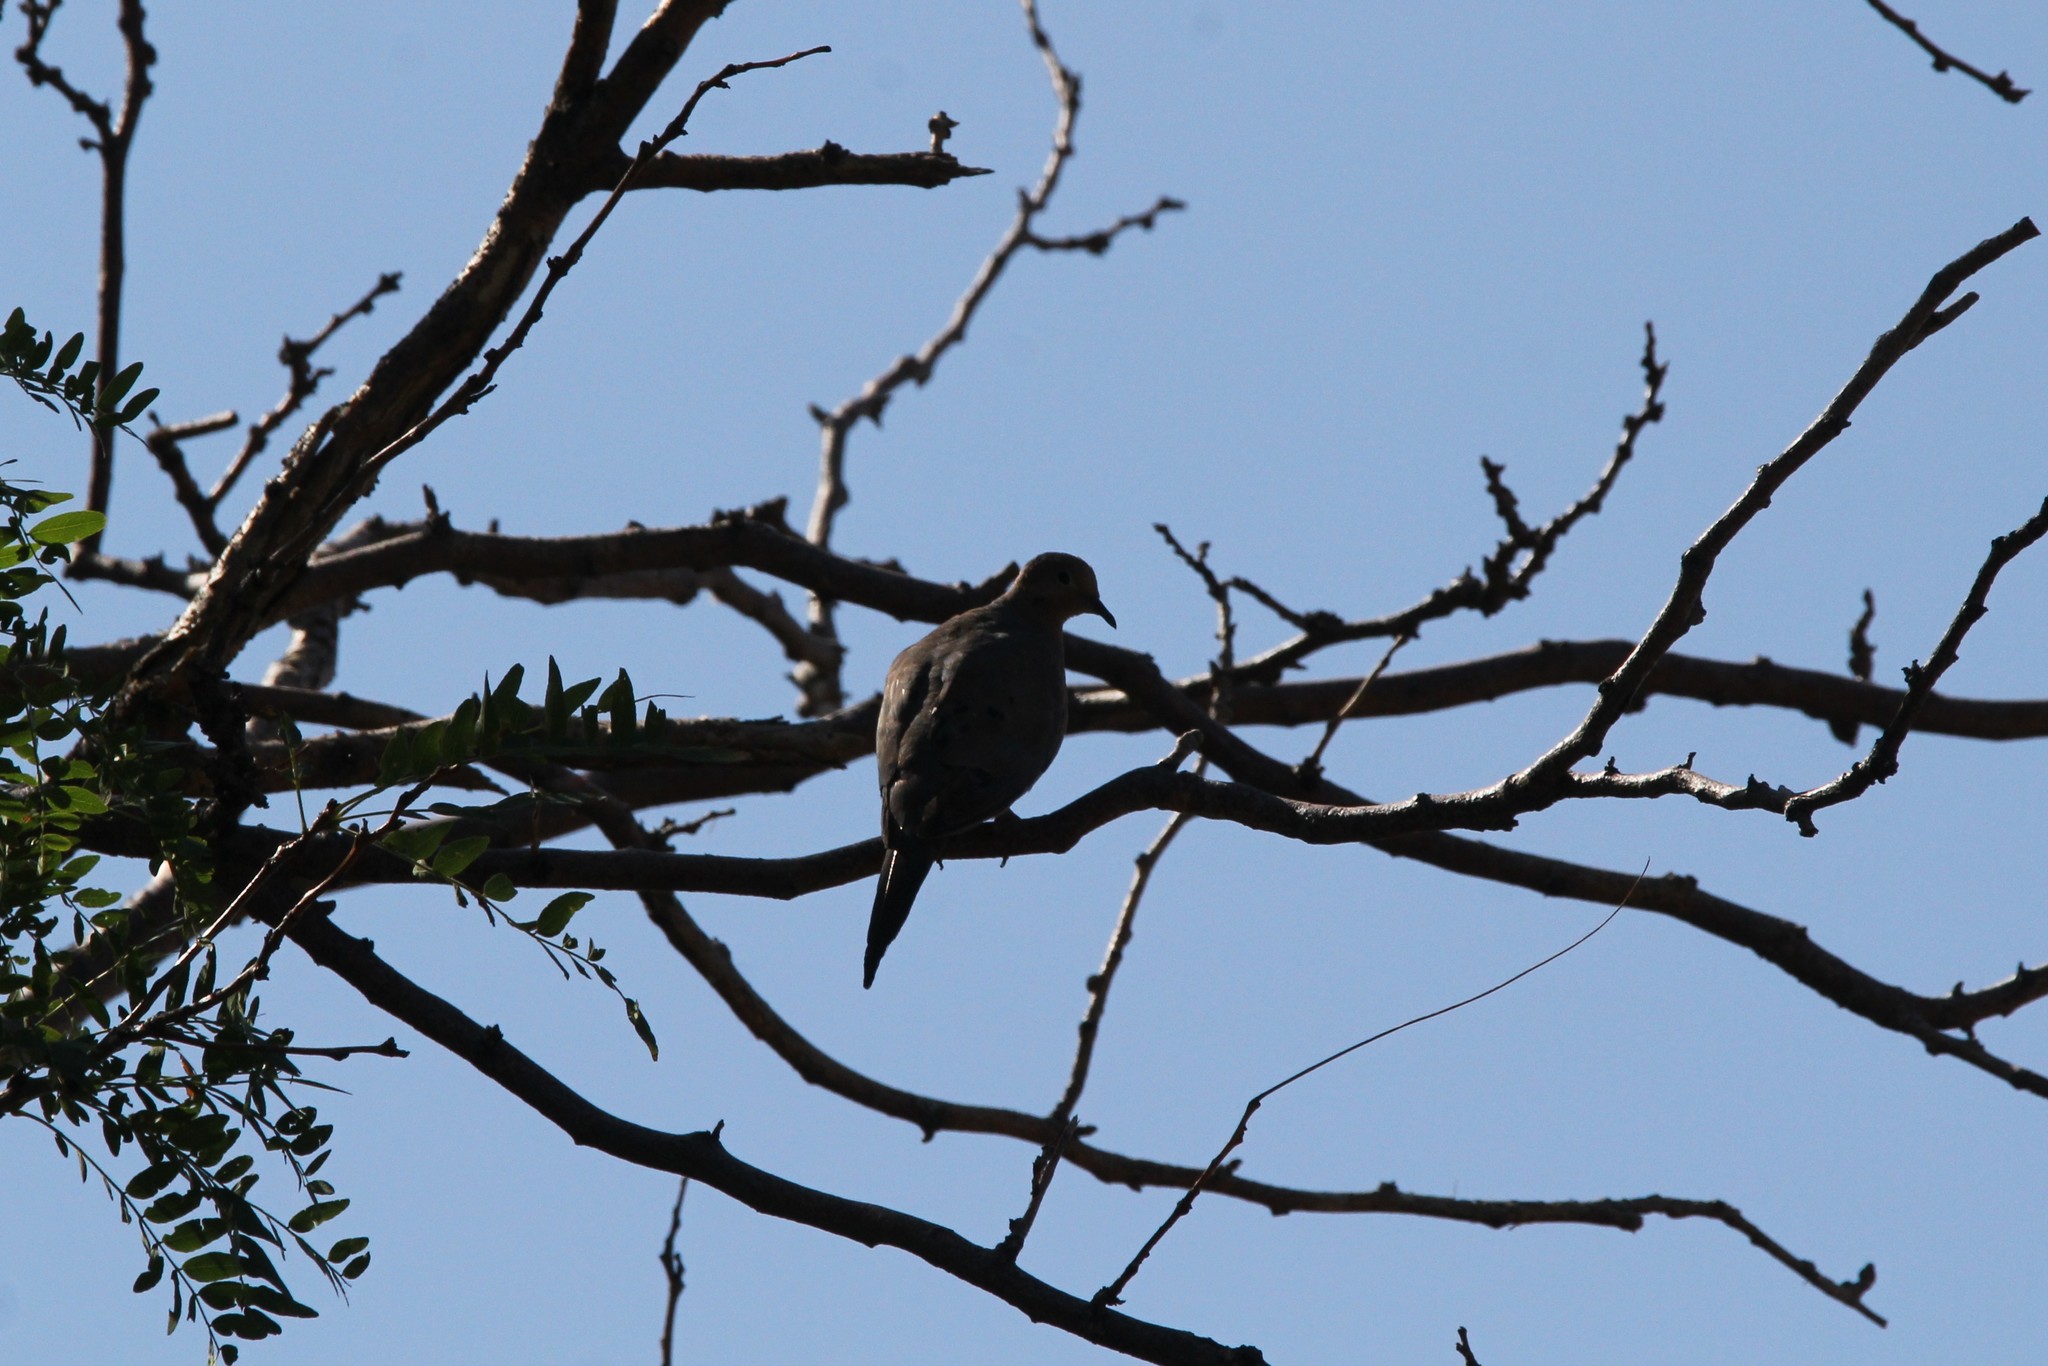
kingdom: Animalia
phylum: Chordata
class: Aves
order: Columbiformes
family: Columbidae
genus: Zenaida
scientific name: Zenaida macroura
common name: Mourning dove
